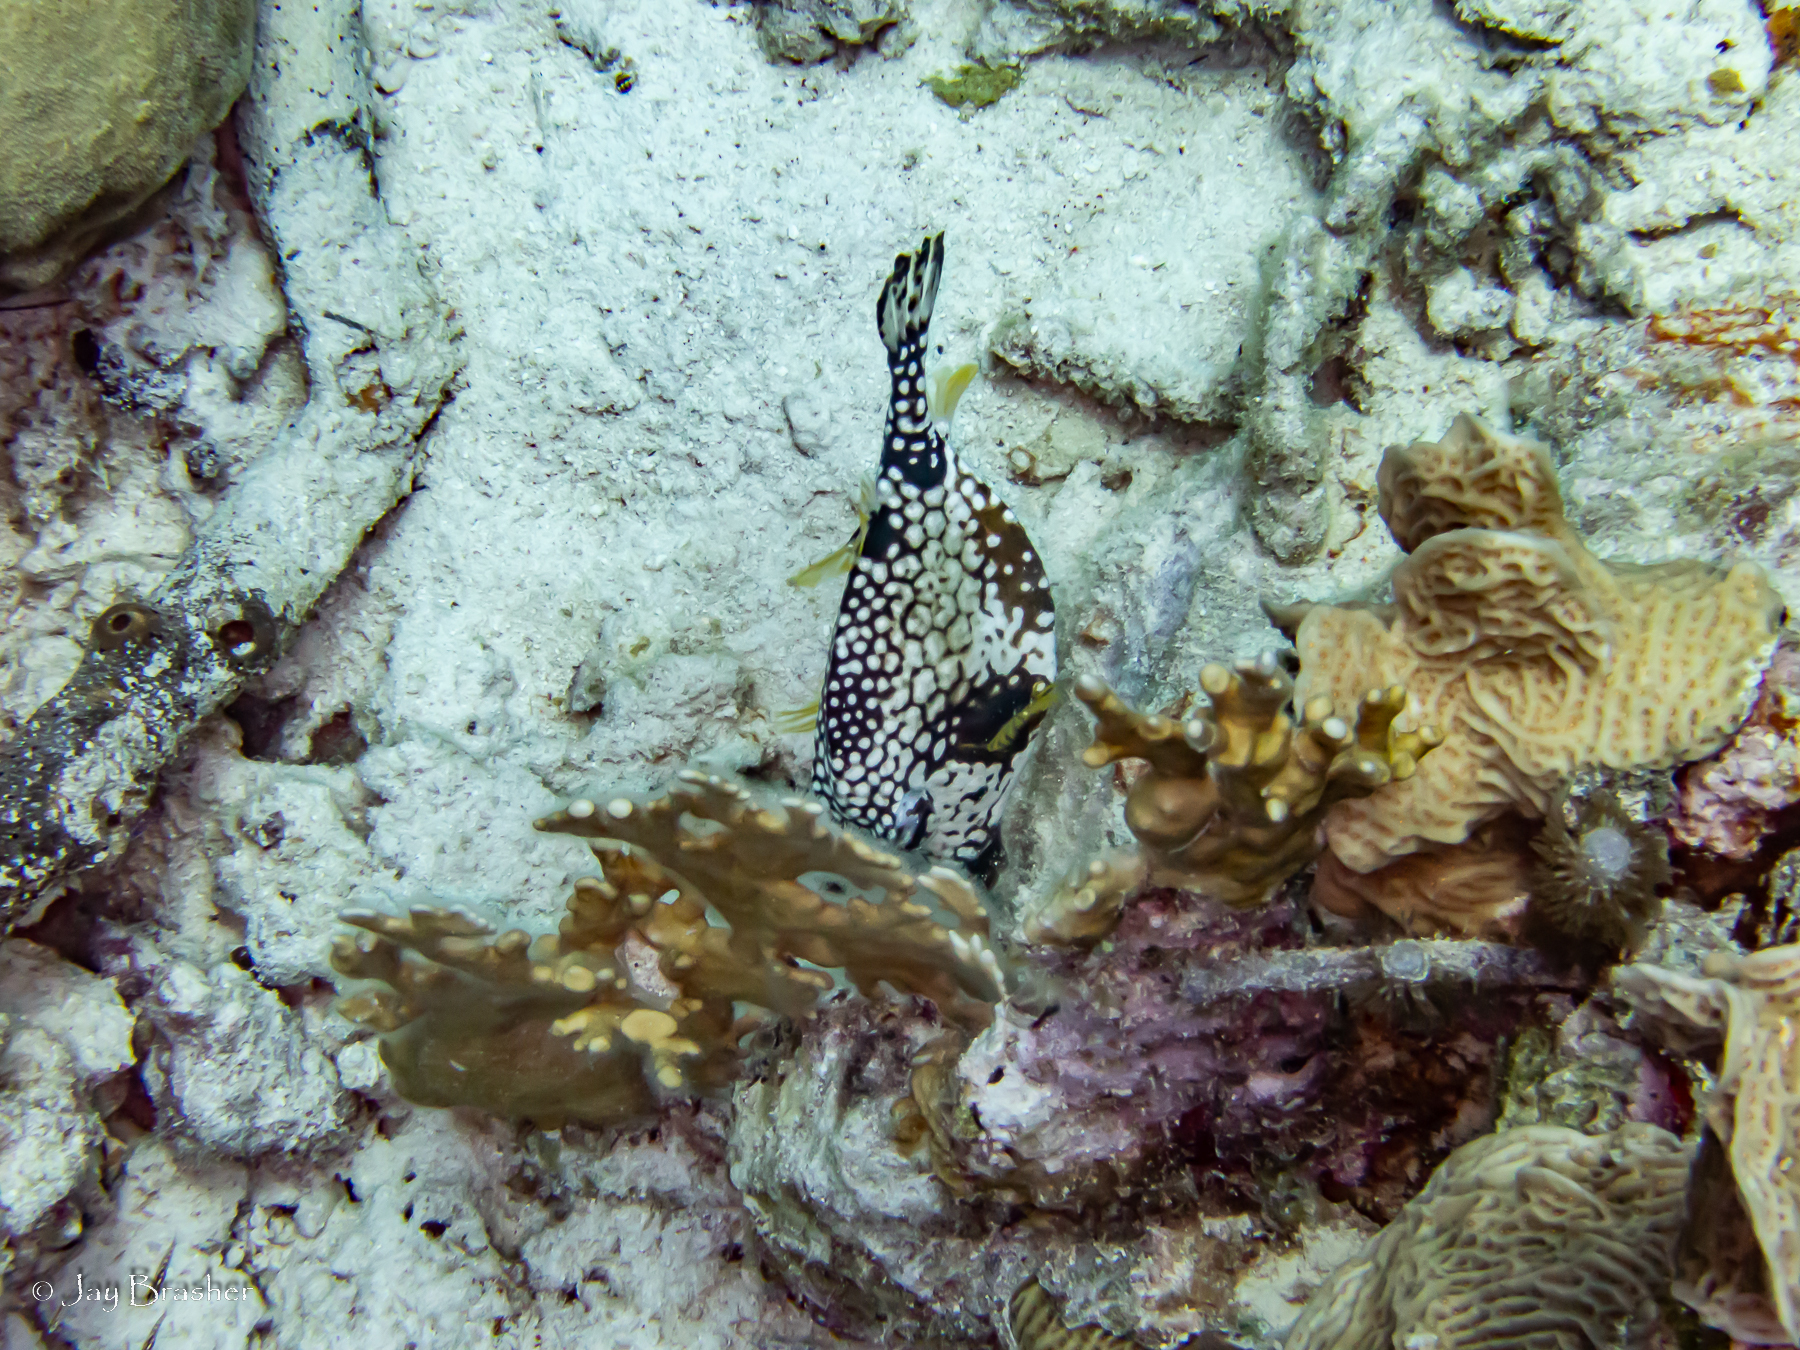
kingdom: Animalia
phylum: Chordata
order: Tetraodontiformes
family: Ostraciidae
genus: Lactophrys
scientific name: Lactophrys triqueter
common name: Smooth trunkfish
